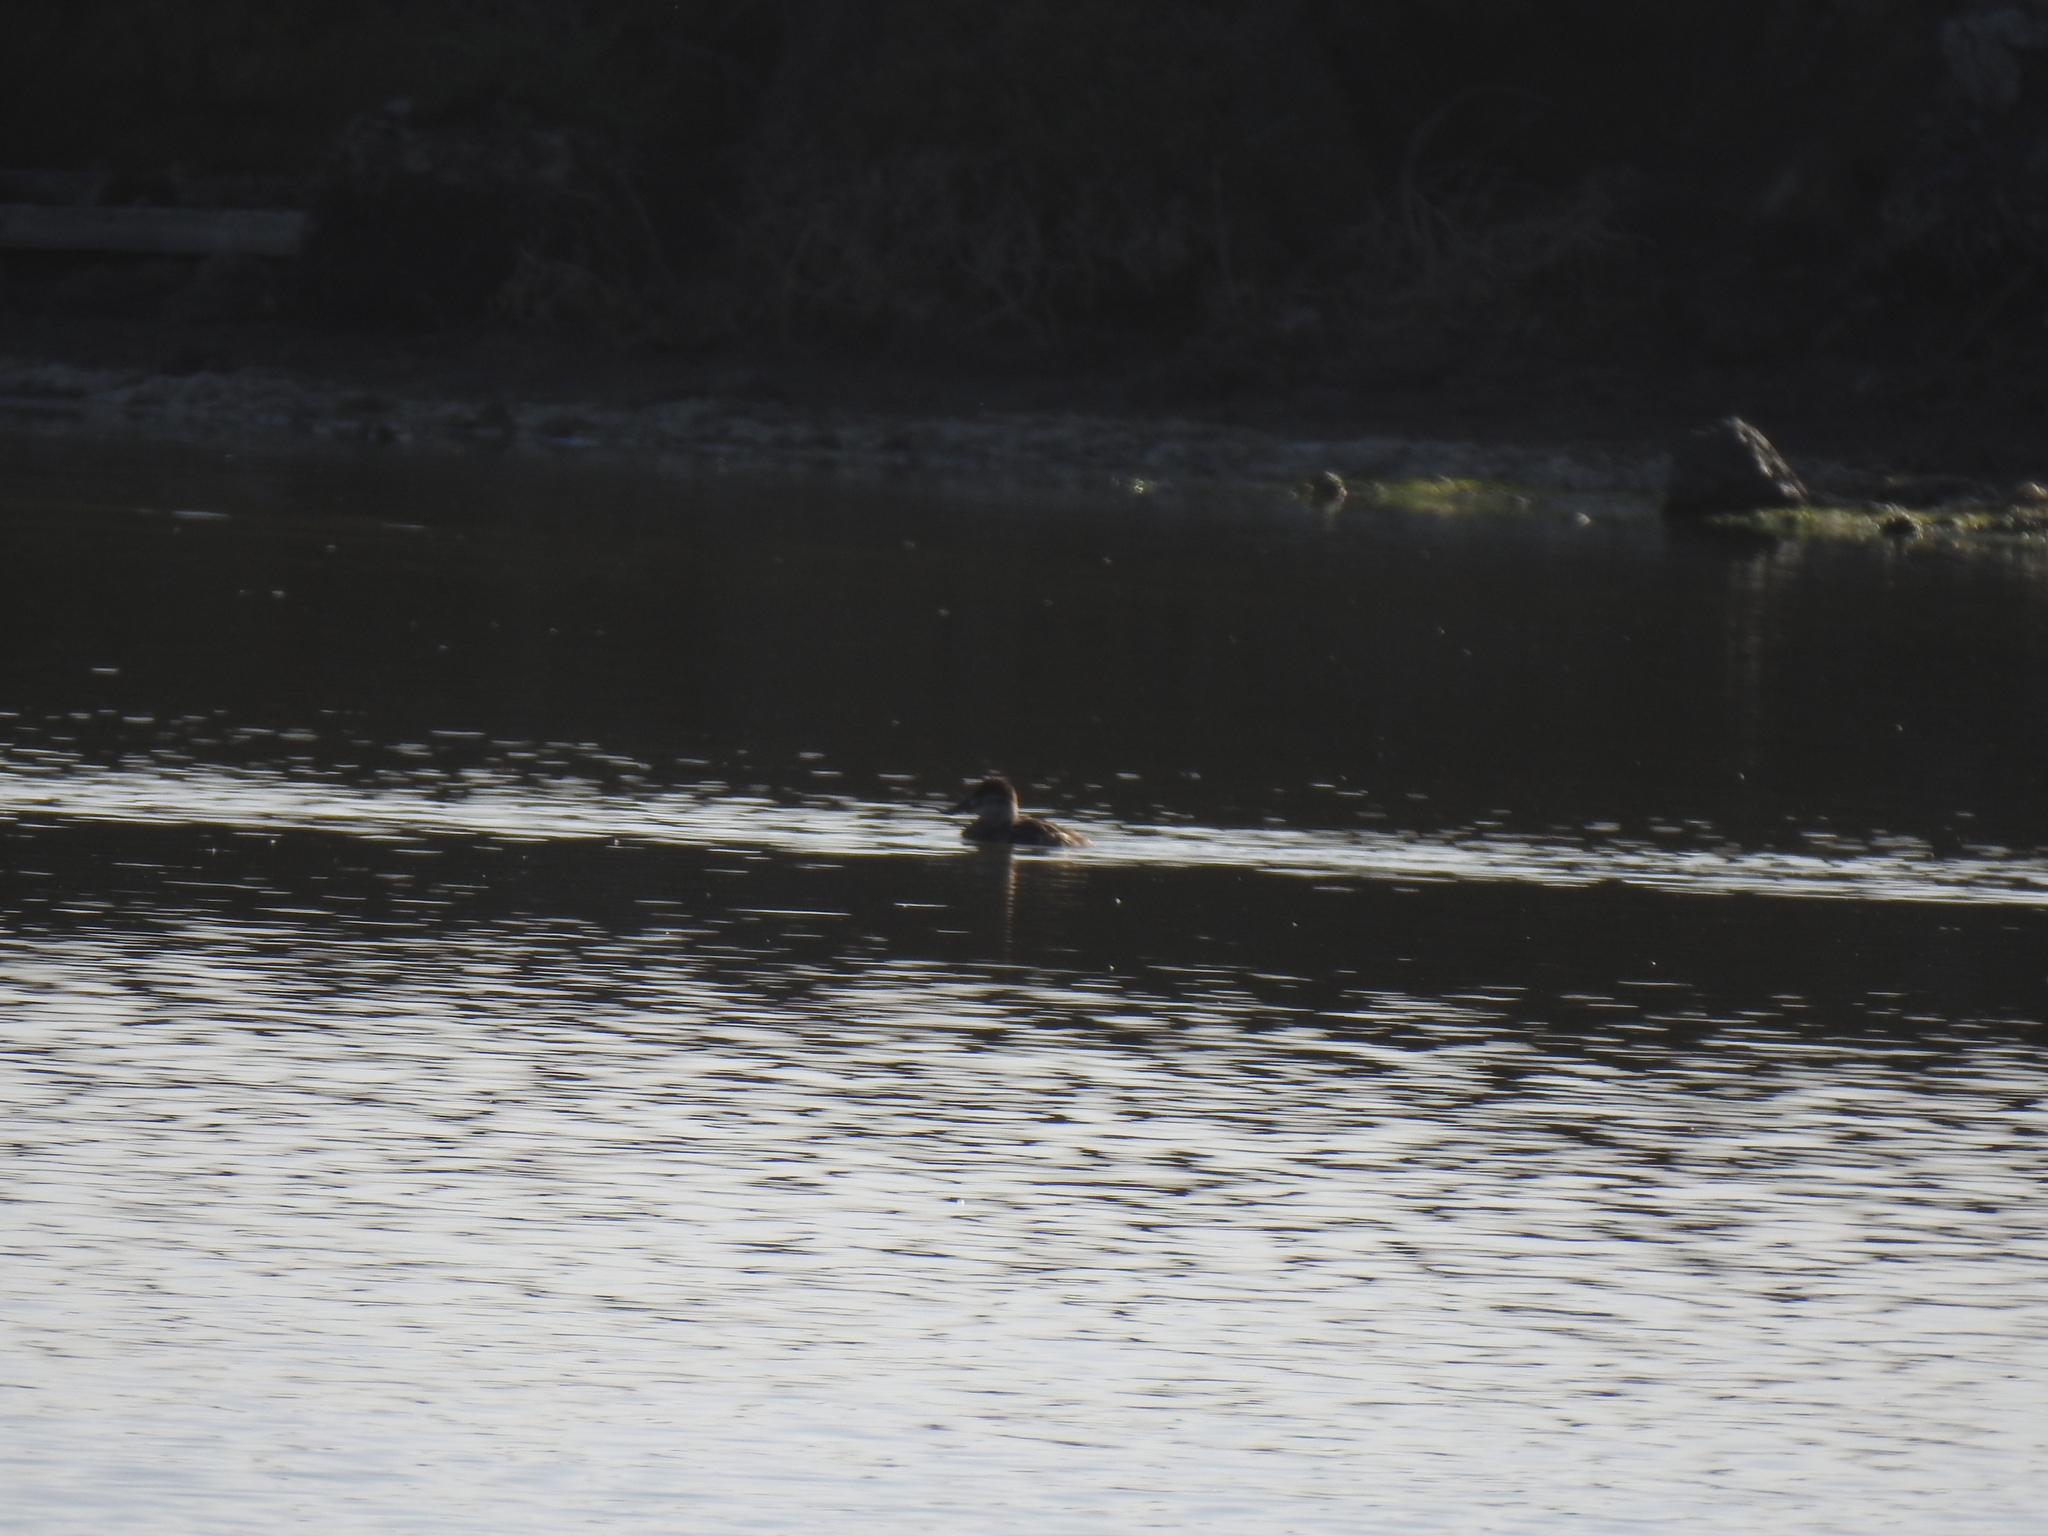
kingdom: Animalia
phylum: Chordata
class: Aves
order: Anseriformes
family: Anatidae
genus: Oxyura
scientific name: Oxyura jamaicensis
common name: Ruddy duck
